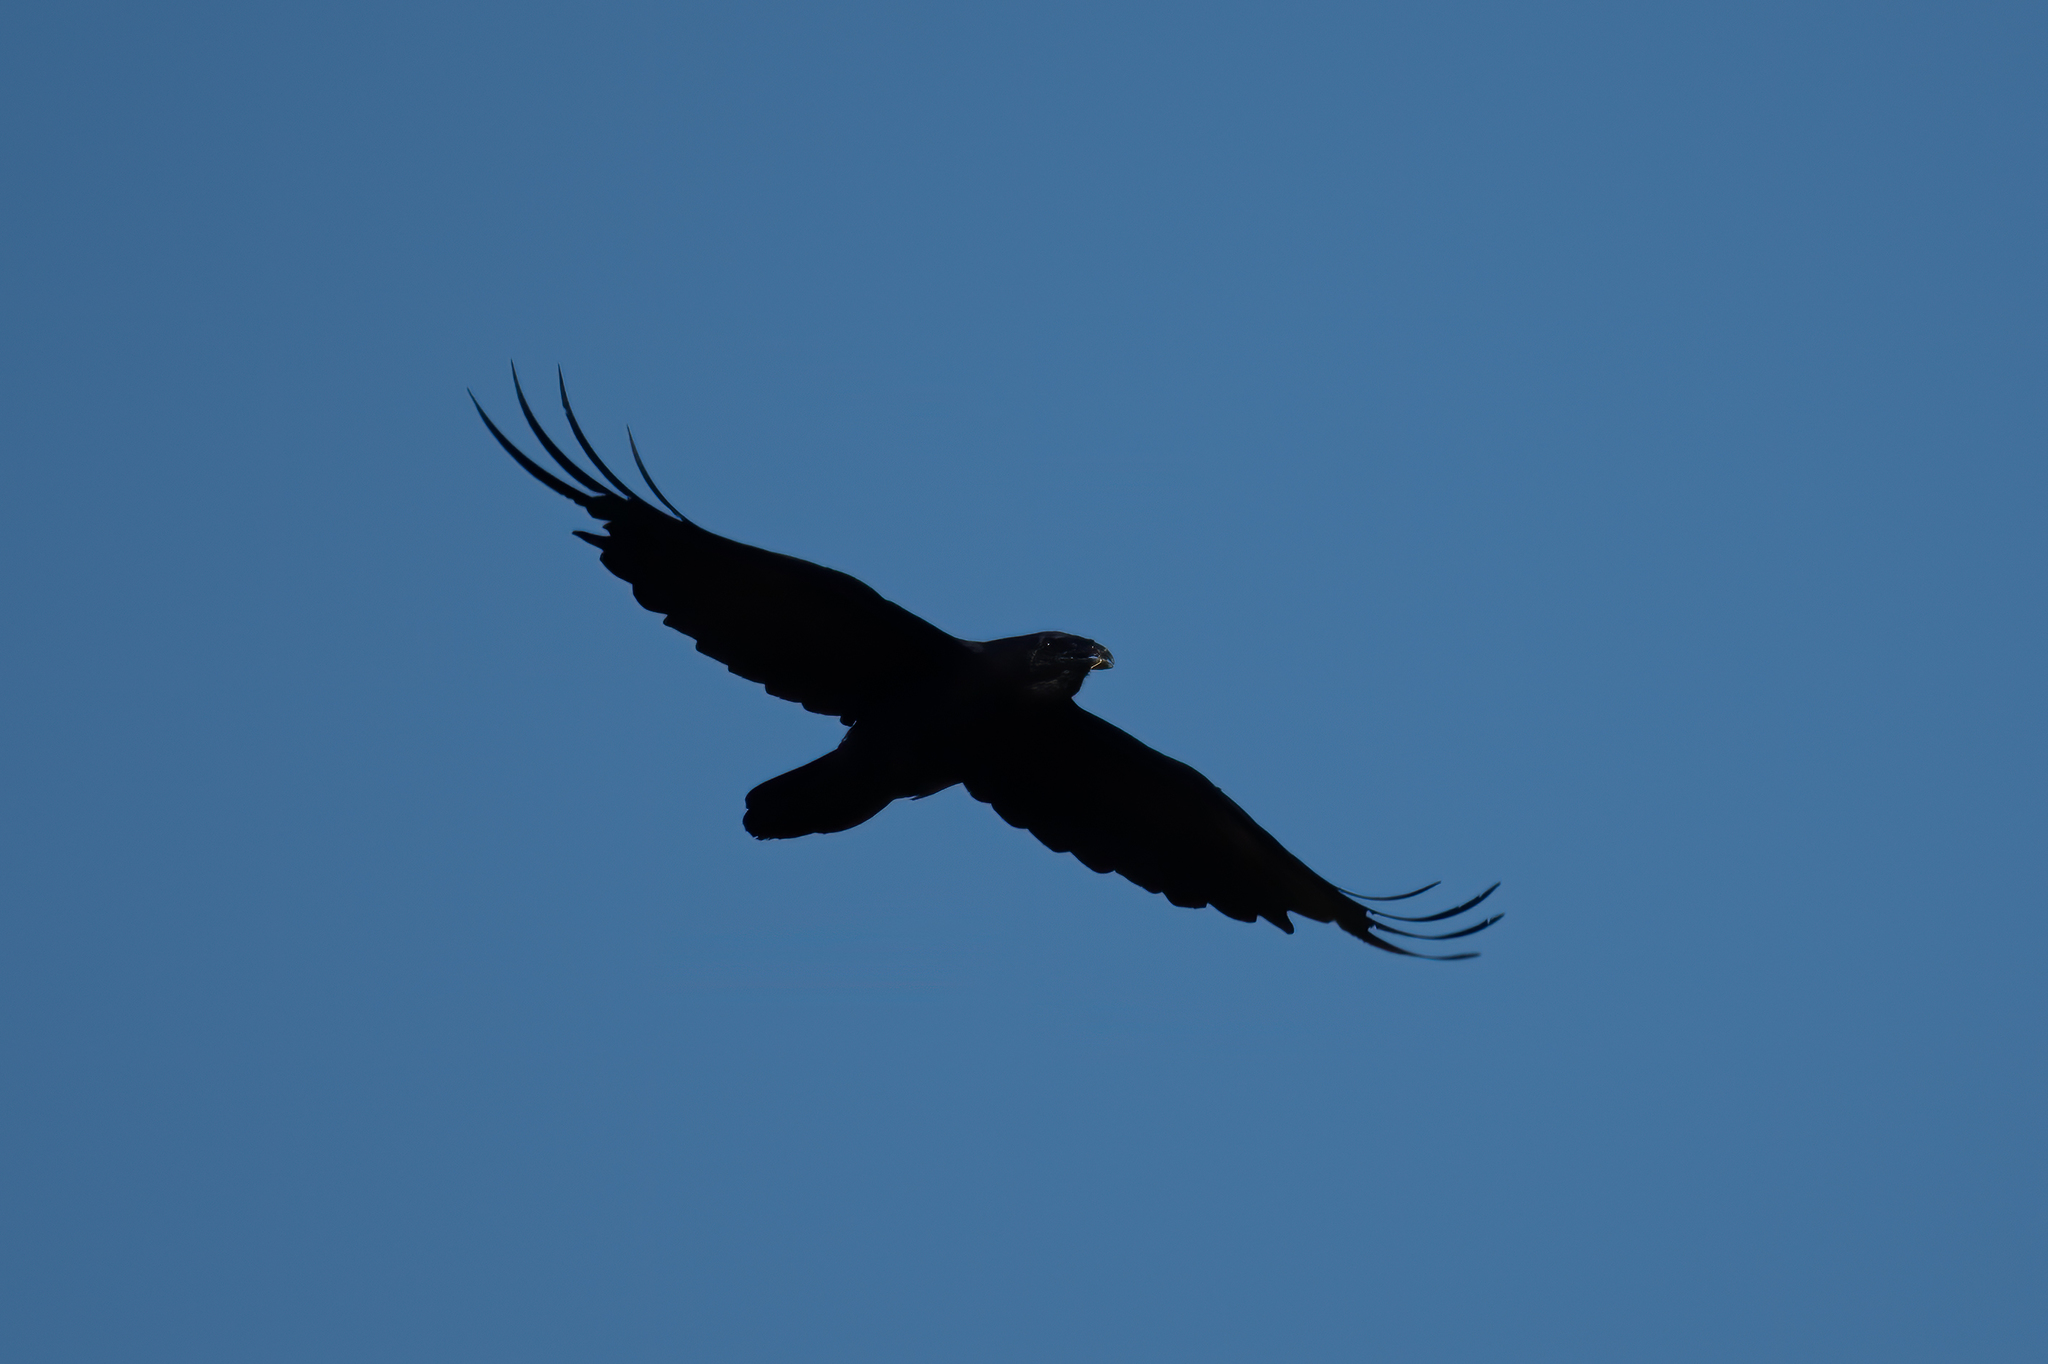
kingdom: Animalia
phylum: Chordata
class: Aves
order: Passeriformes
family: Corvidae
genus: Corvus
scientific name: Corvus corax
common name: Common raven
